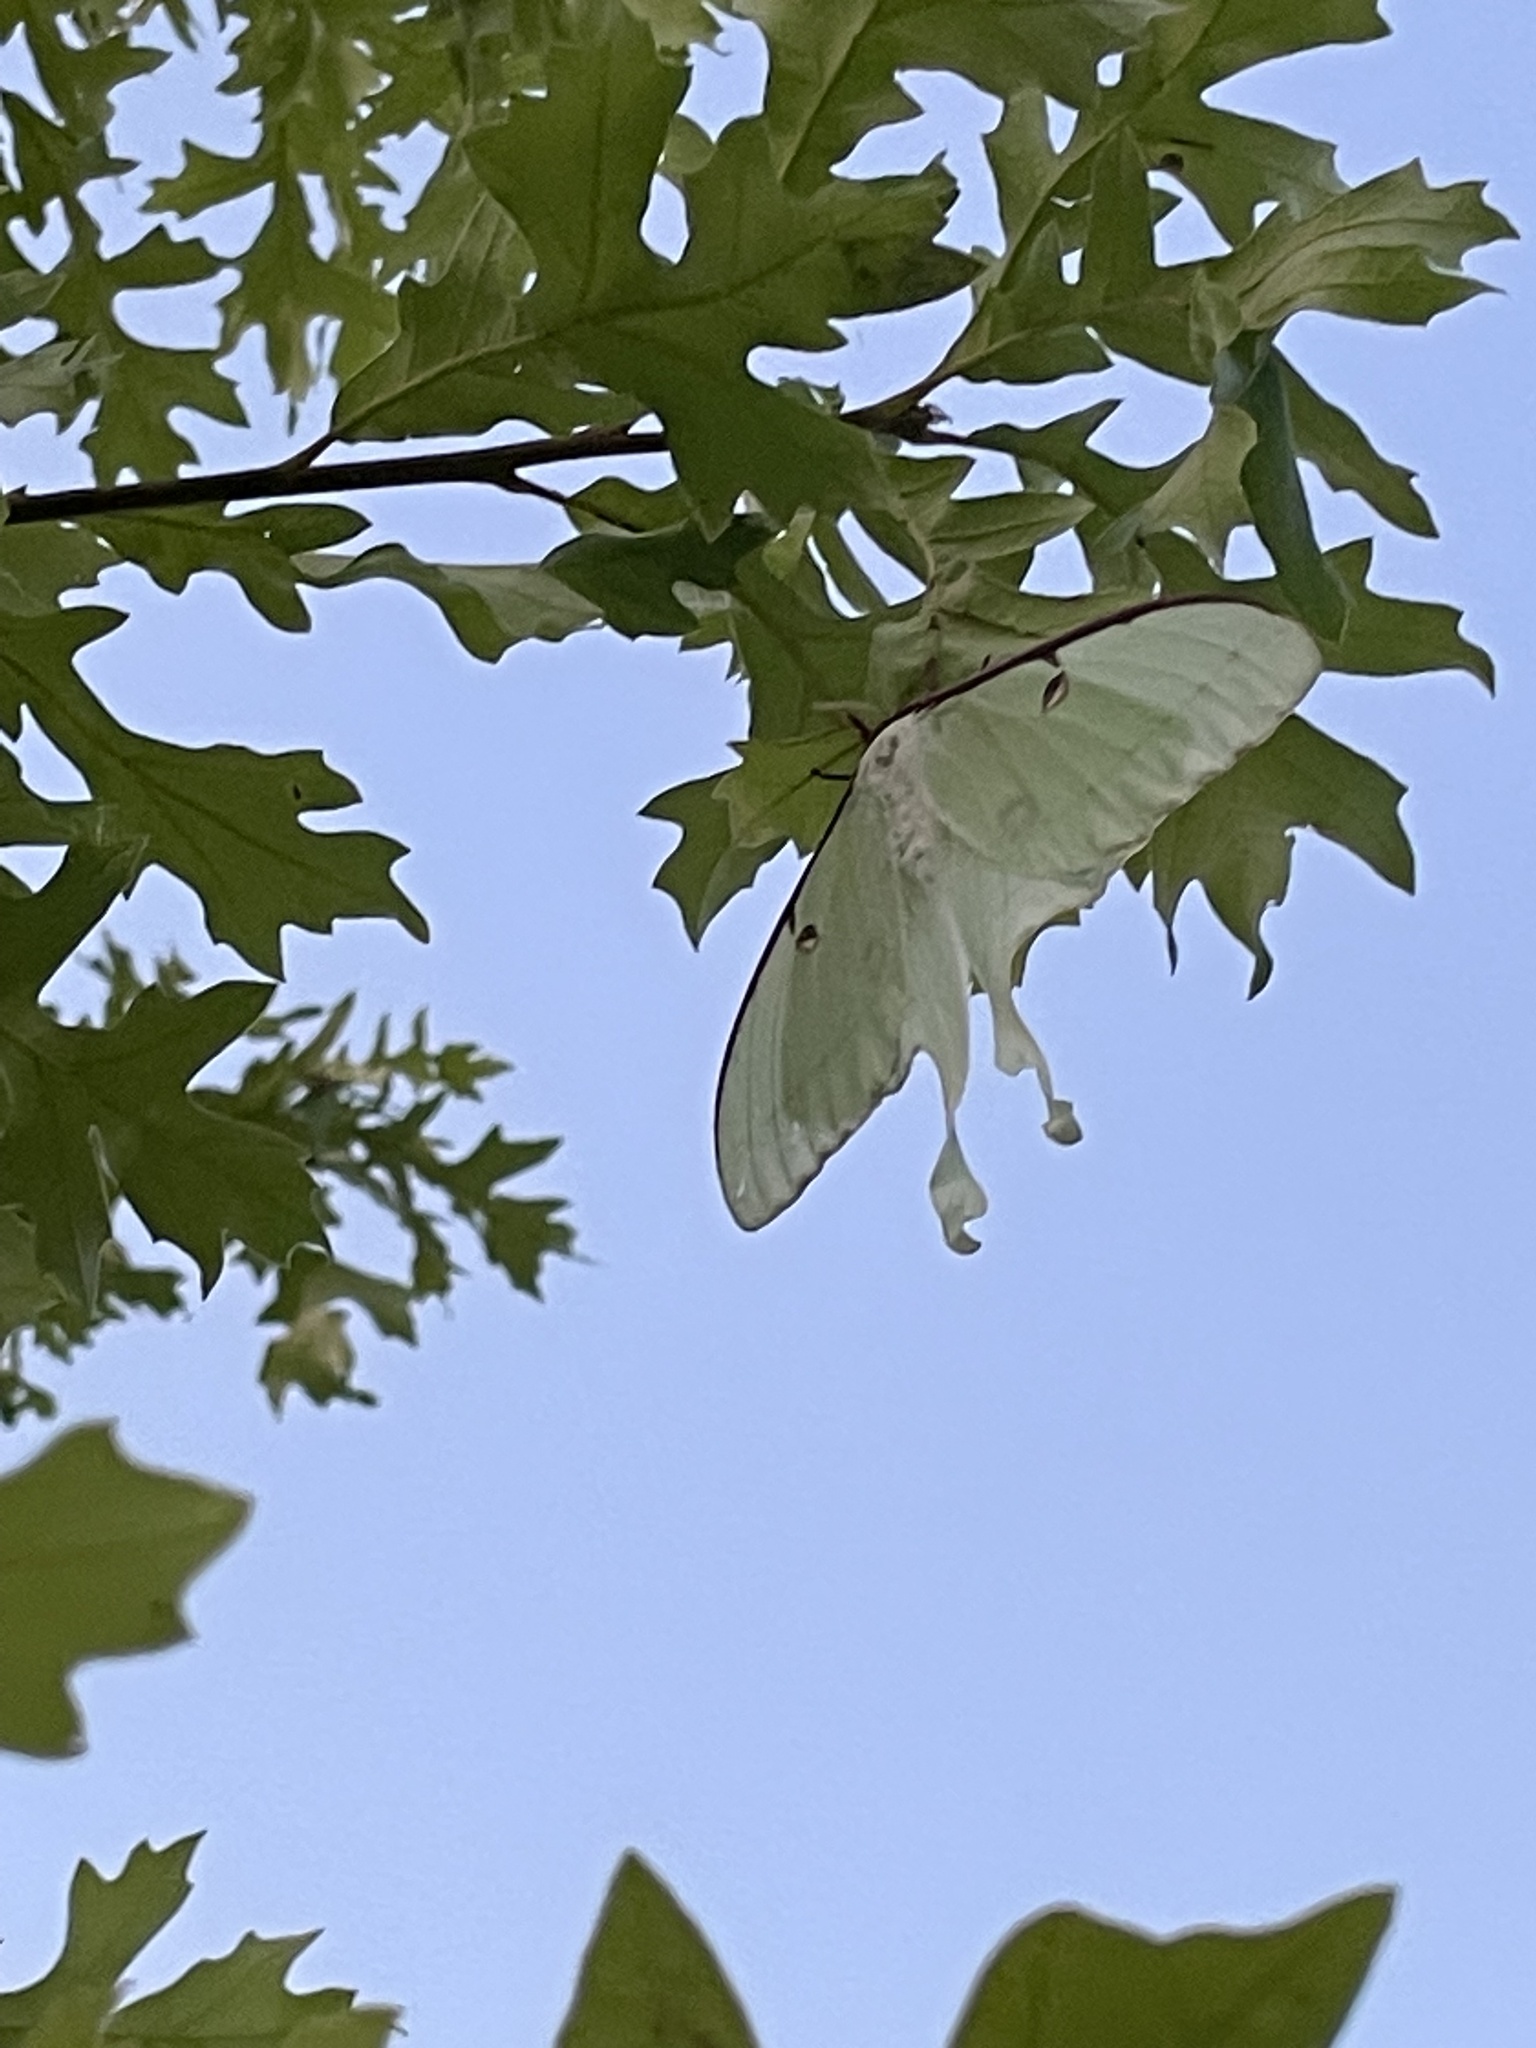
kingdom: Animalia
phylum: Arthropoda
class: Insecta
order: Lepidoptera
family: Saturniidae
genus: Actias
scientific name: Actias luna
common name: Luna moth
